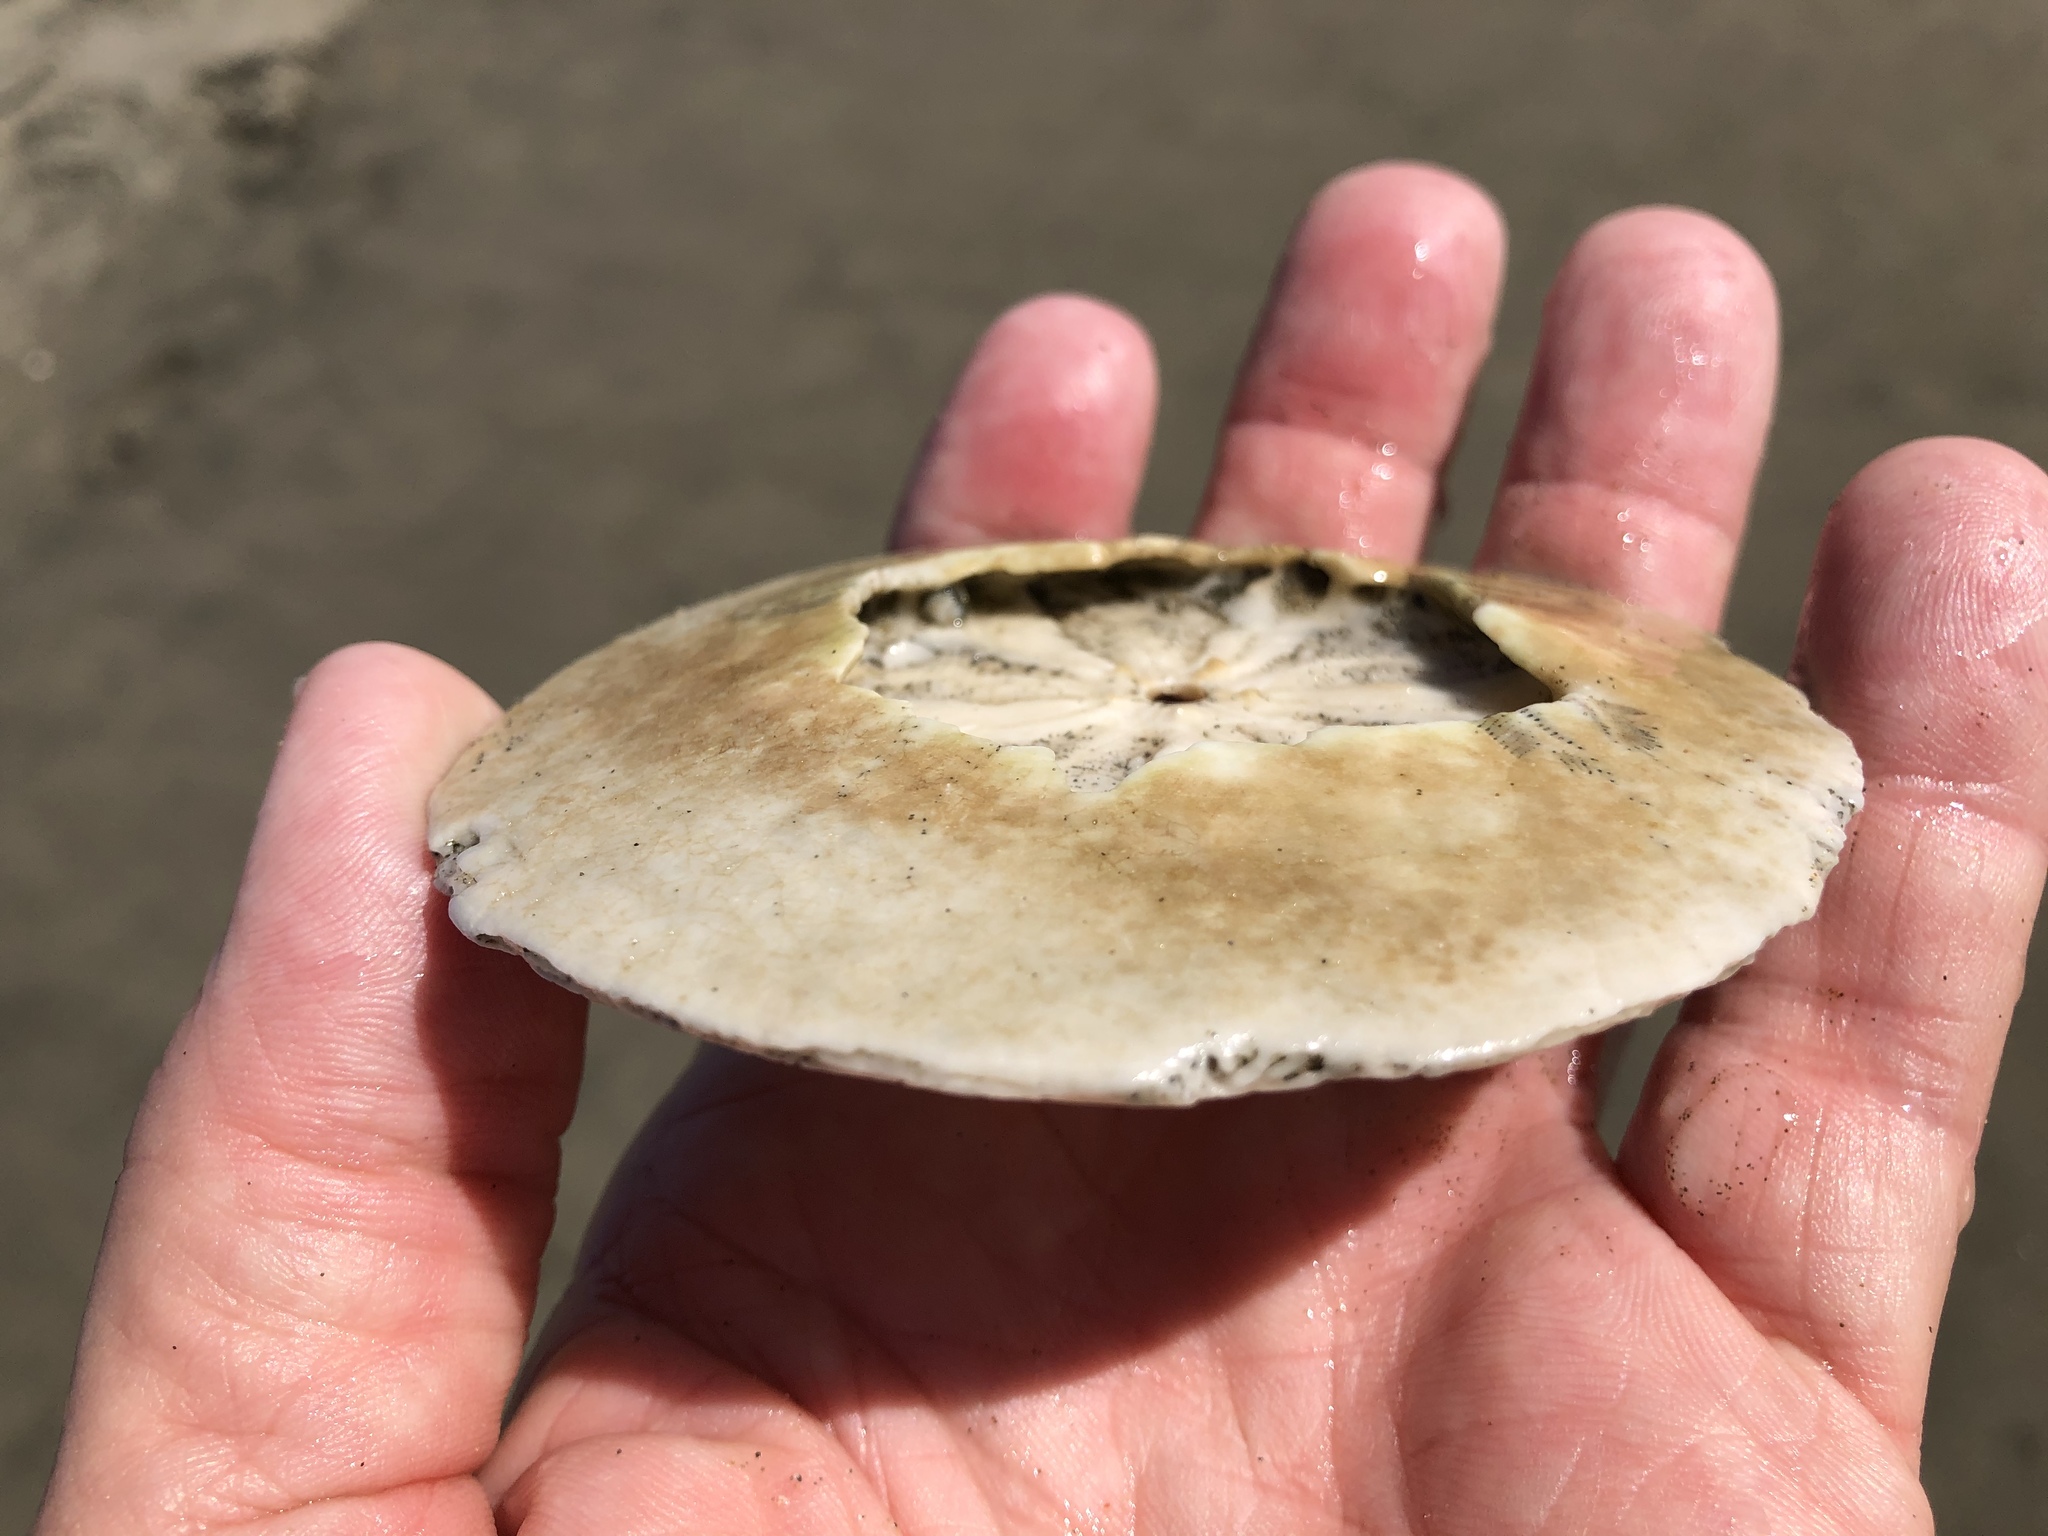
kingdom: Animalia
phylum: Echinodermata
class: Echinoidea
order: Echinolampadacea
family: Dendrasteridae
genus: Dendraster
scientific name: Dendraster excentricus
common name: Eccentric sand dollar sea urchin
